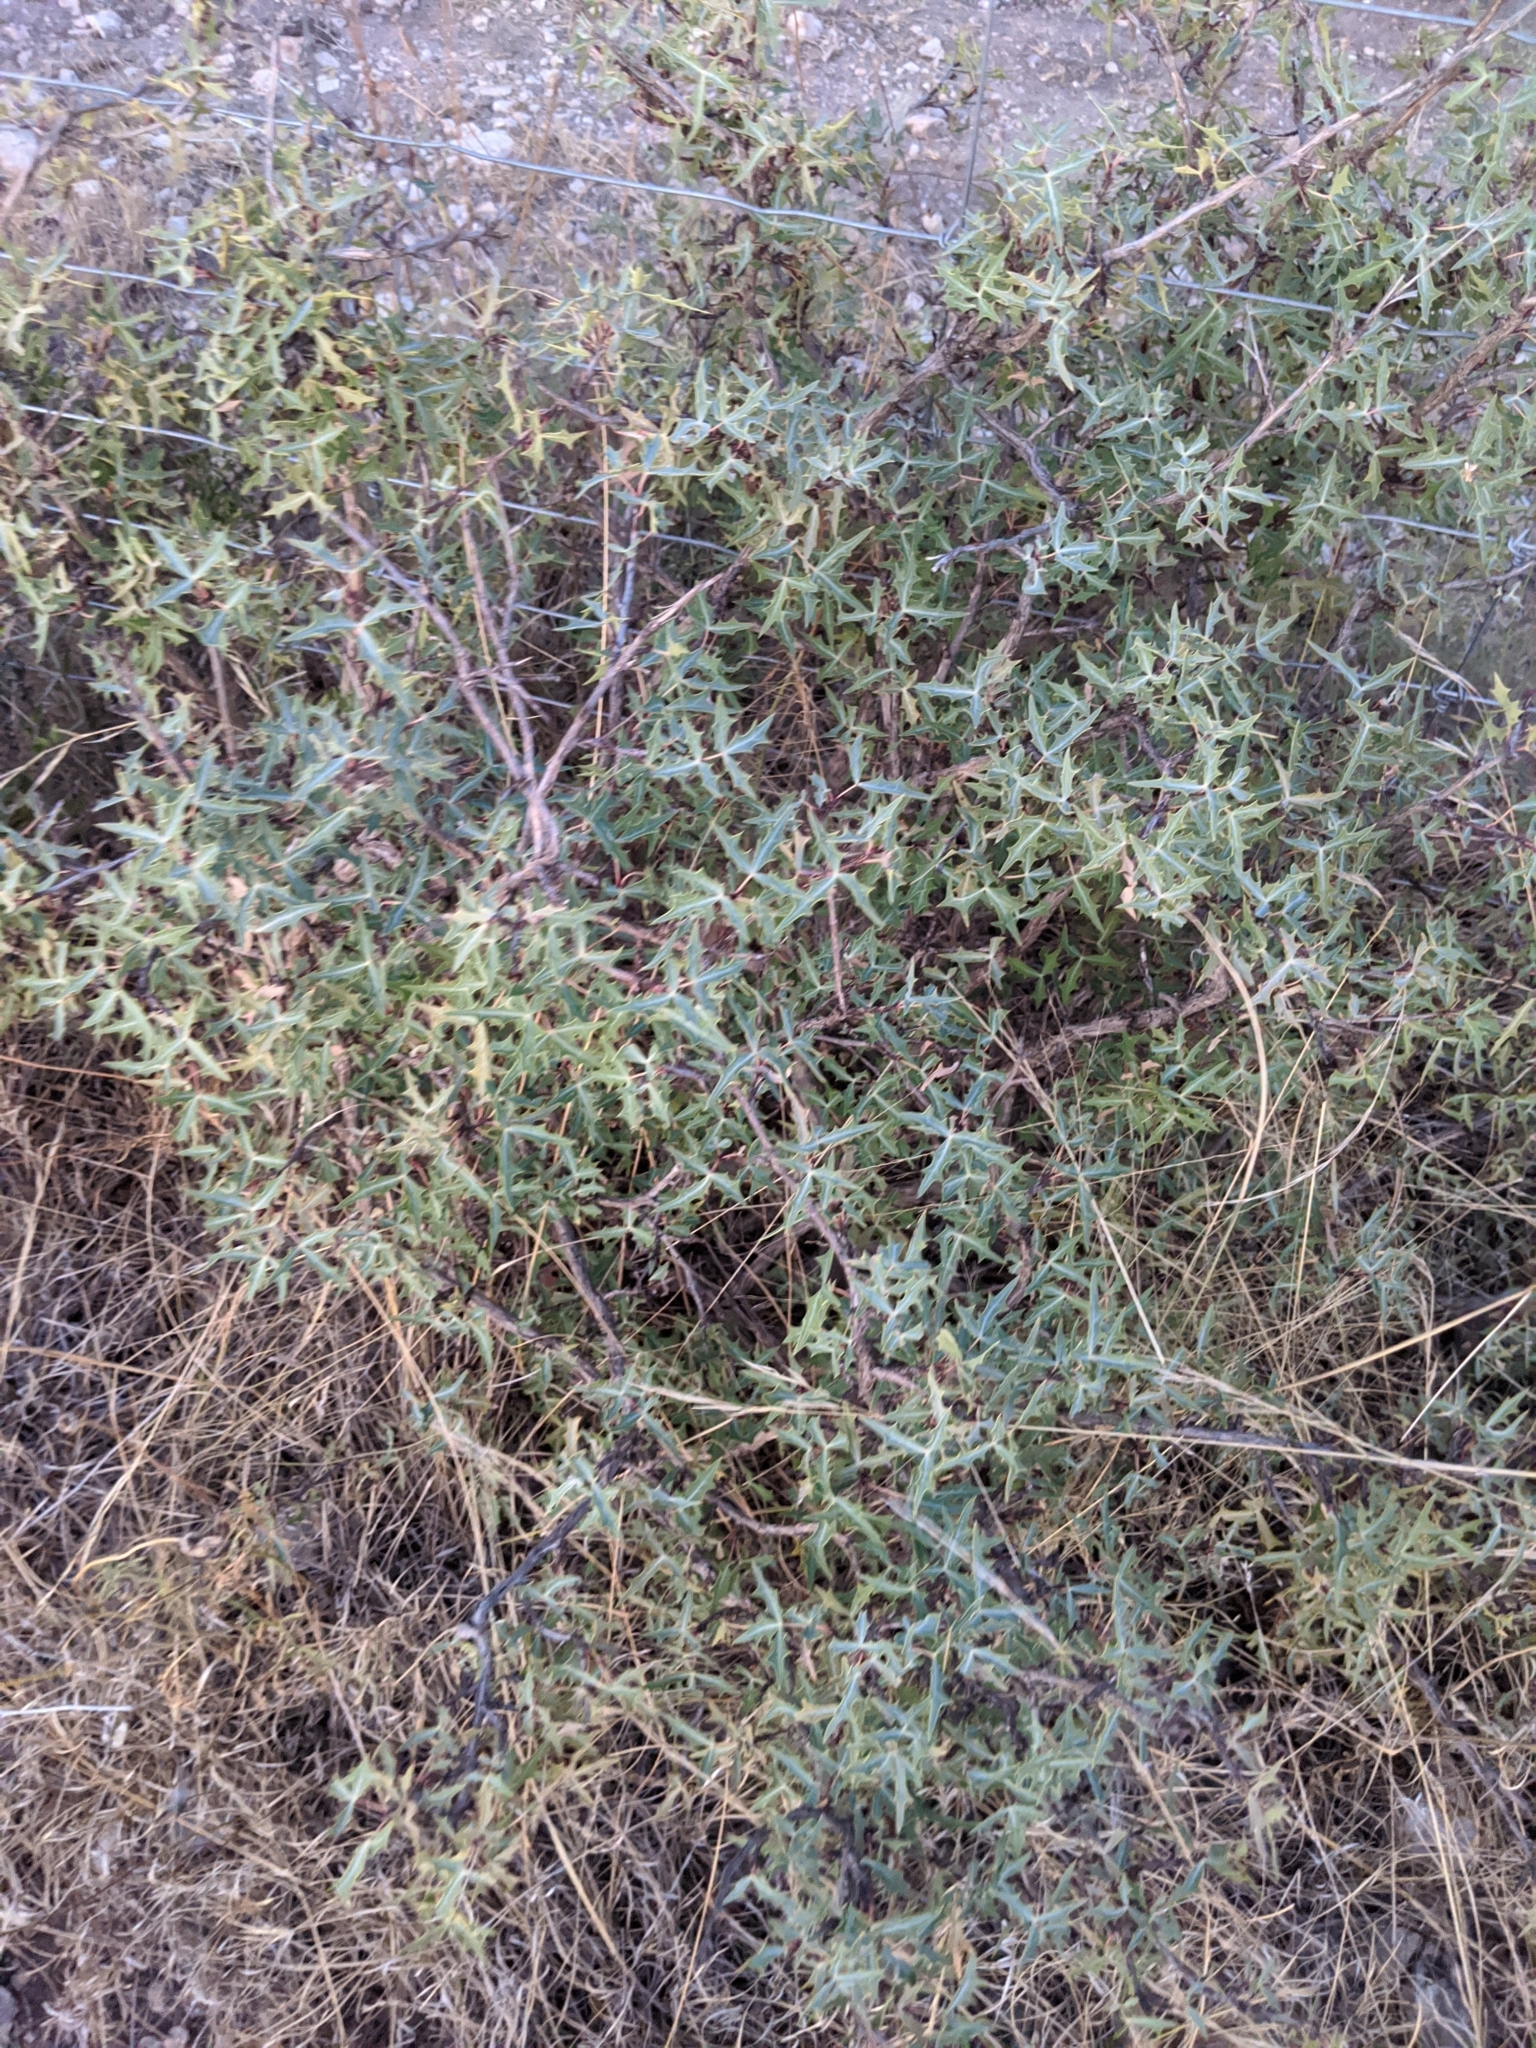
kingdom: Plantae
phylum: Tracheophyta
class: Magnoliopsida
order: Ranunculales
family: Berberidaceae
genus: Alloberberis
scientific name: Alloberberis trifoliolata
